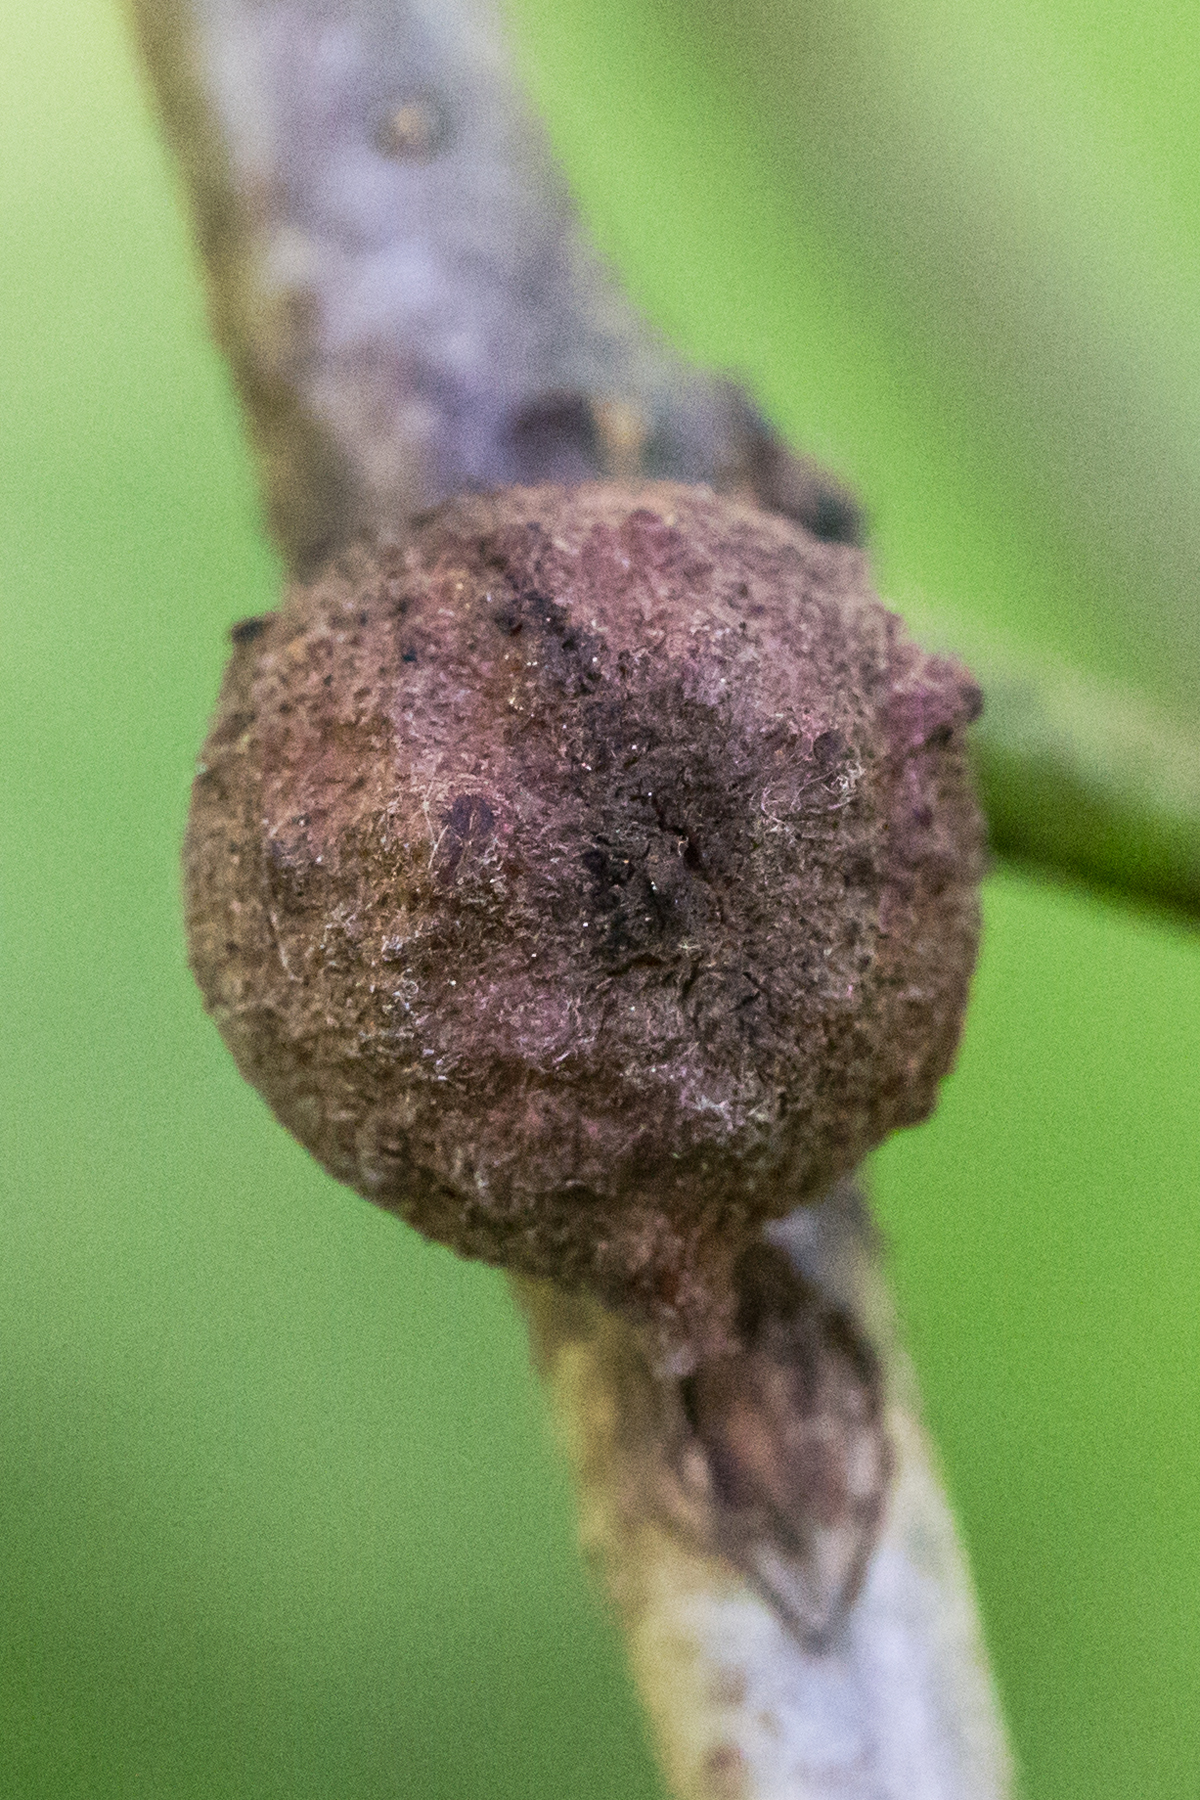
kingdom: Animalia
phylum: Arthropoda
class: Insecta
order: Hymenoptera
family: Cynipidae
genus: Disholcaspis
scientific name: Disholcaspis
